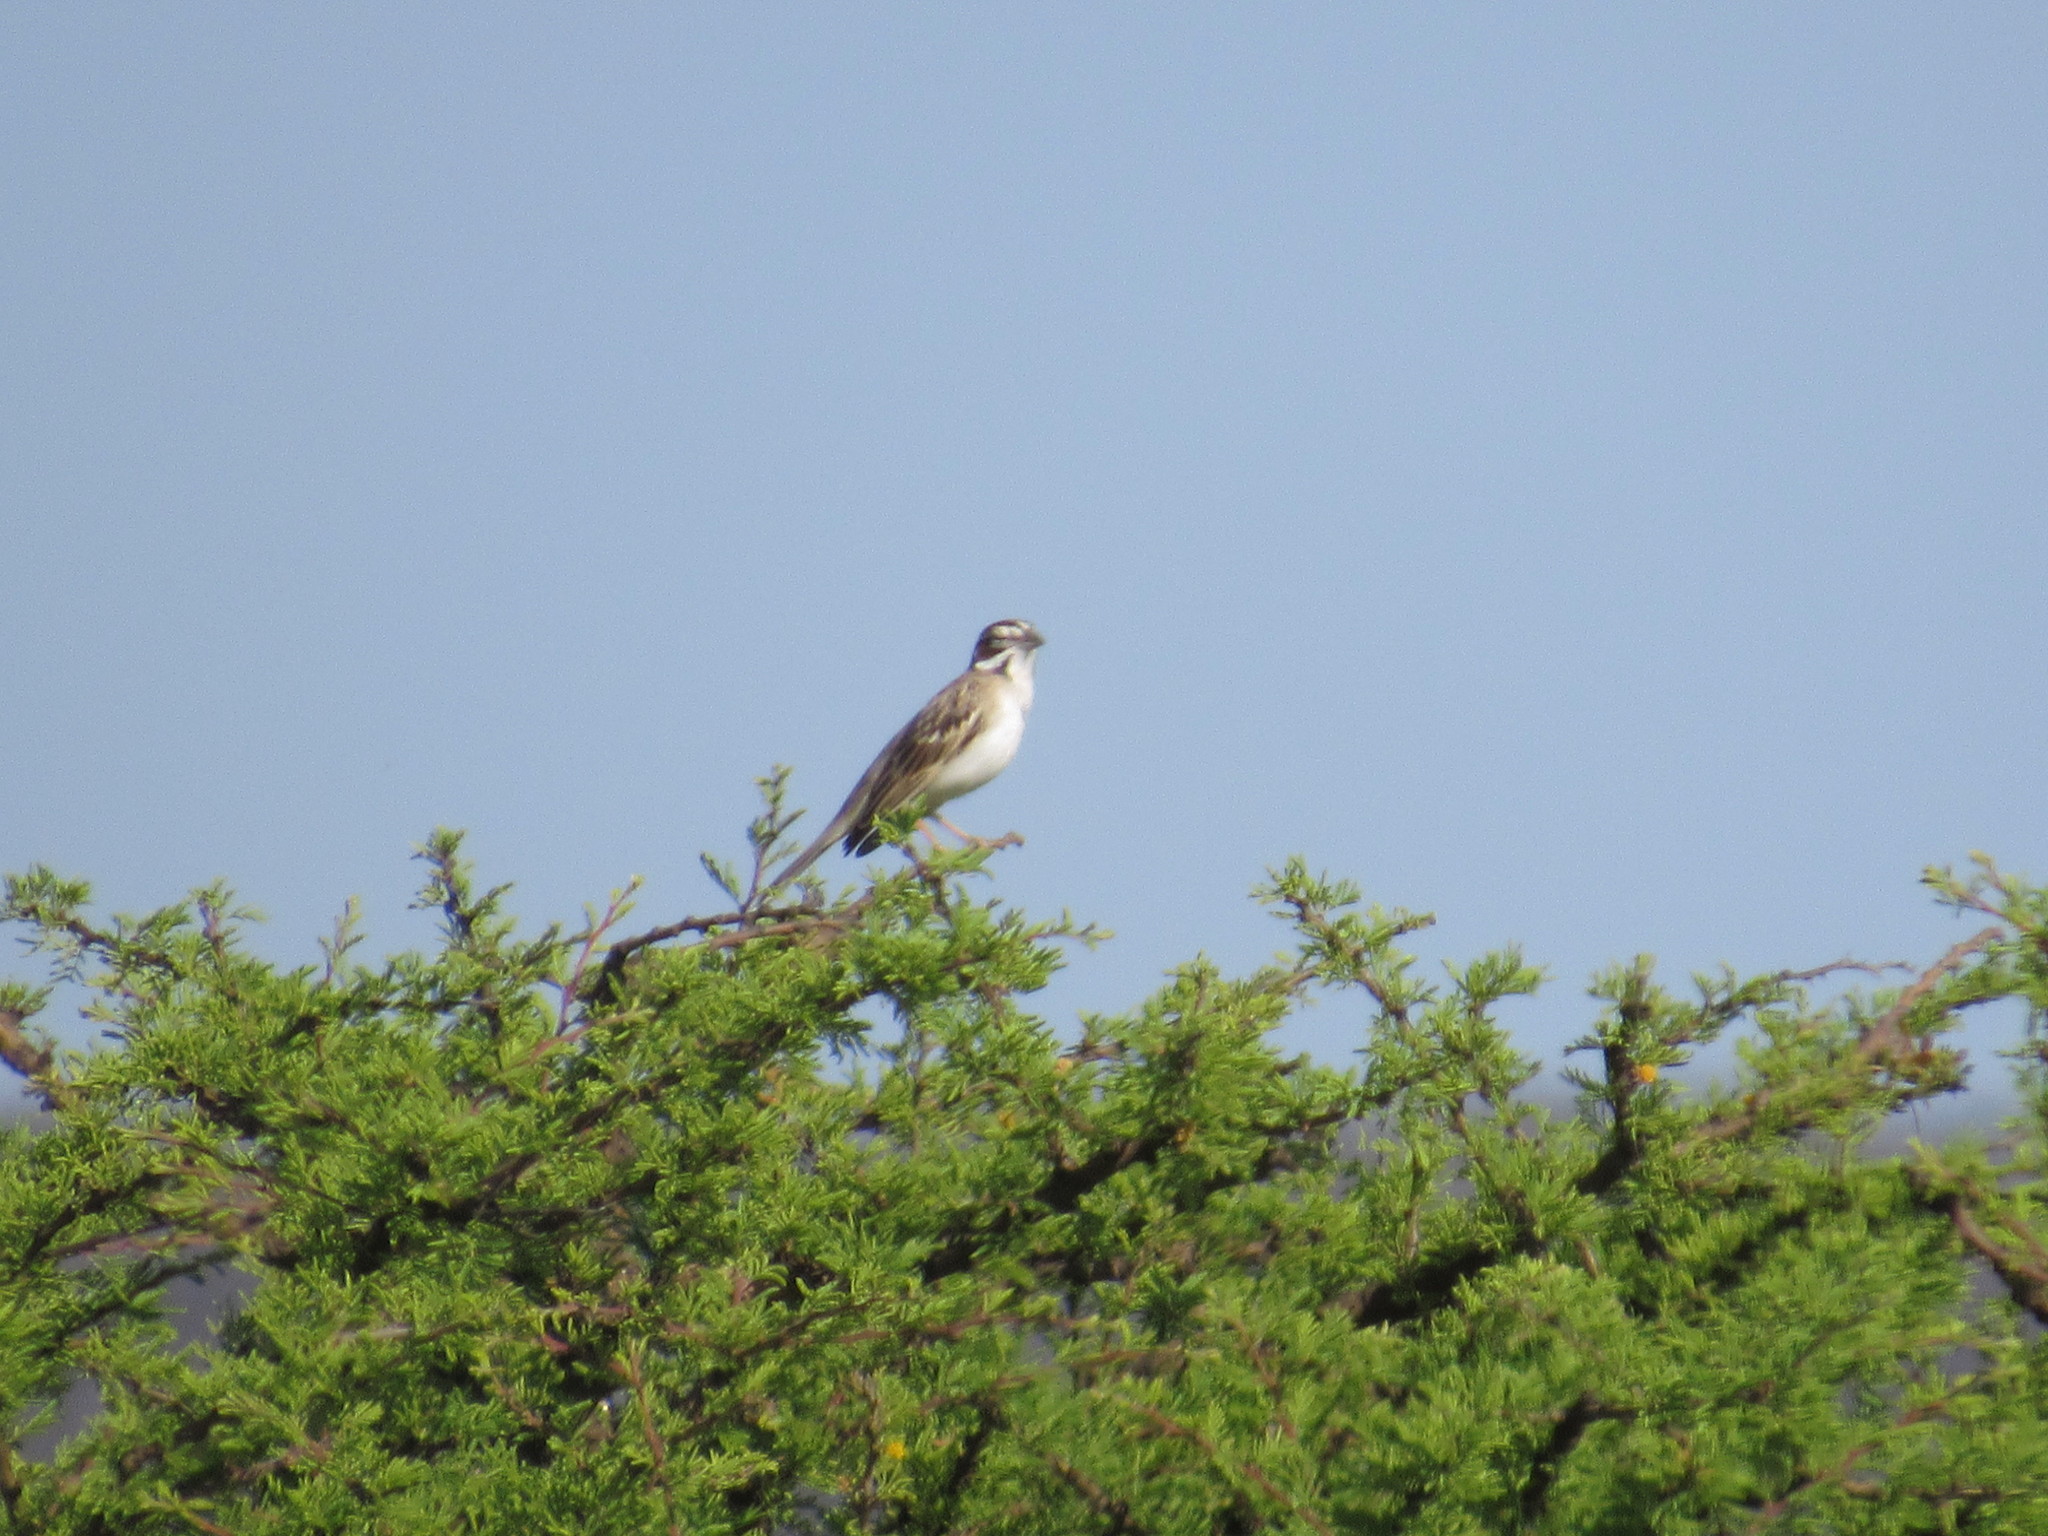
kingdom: Animalia
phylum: Chordata
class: Aves
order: Passeriformes
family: Passerellidae
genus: Chondestes
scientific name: Chondestes grammacus
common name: Lark sparrow
